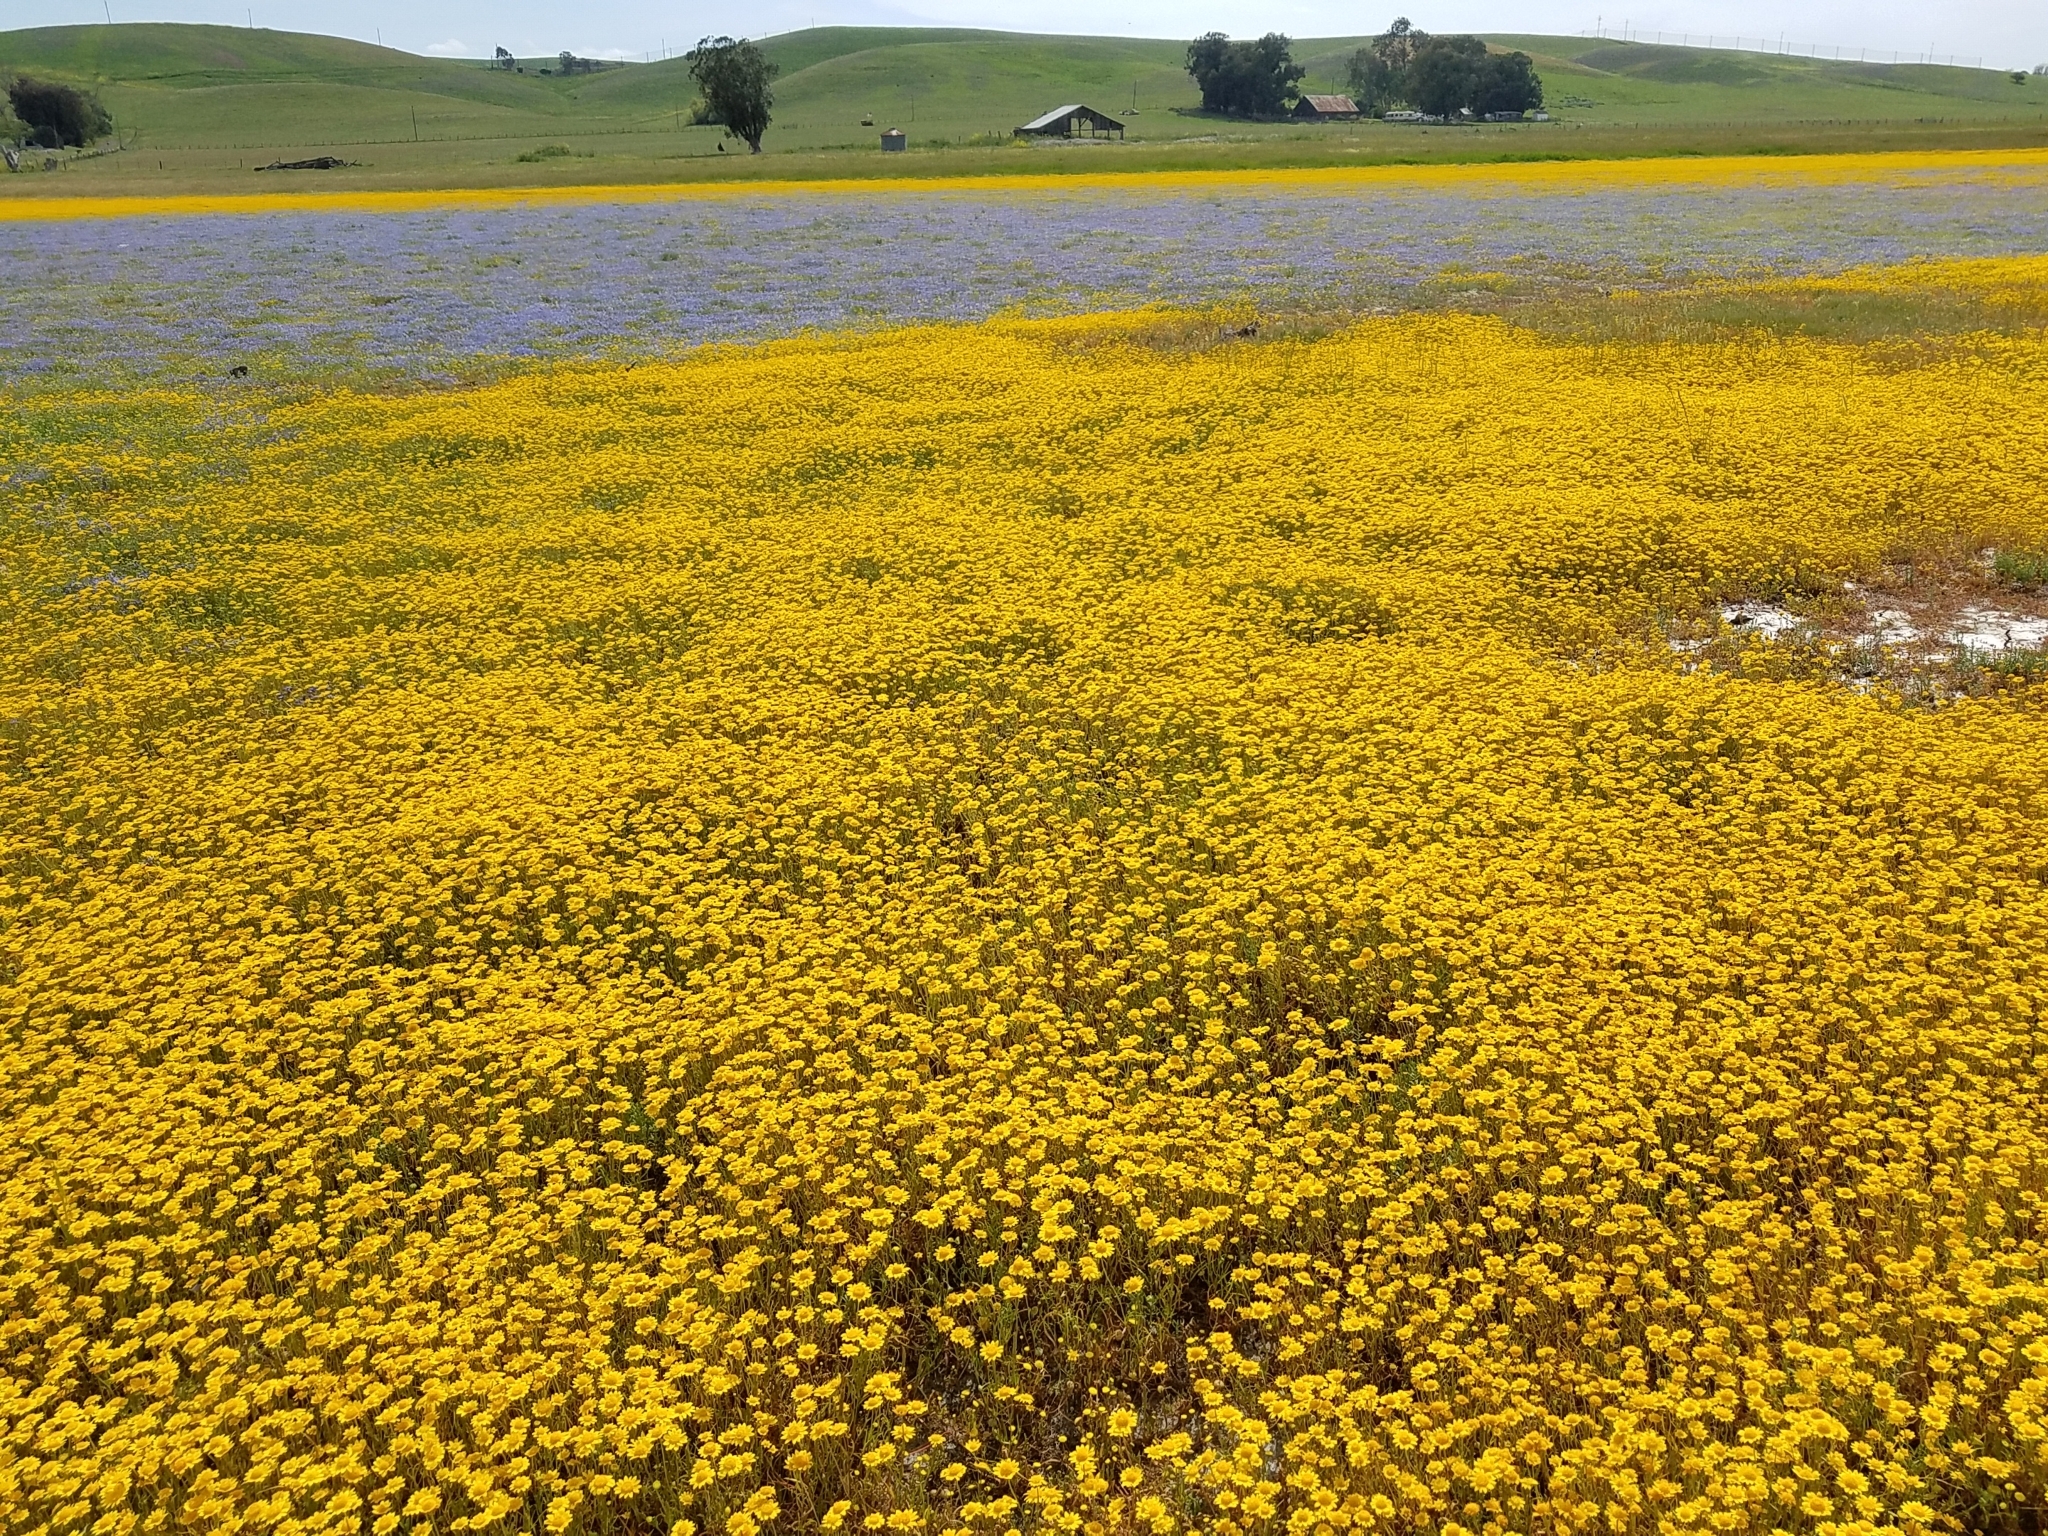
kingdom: Plantae
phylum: Tracheophyta
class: Magnoliopsida
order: Asterales
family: Asteraceae
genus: Lasthenia
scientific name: Lasthenia conjugens
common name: Contra costa goldfields
